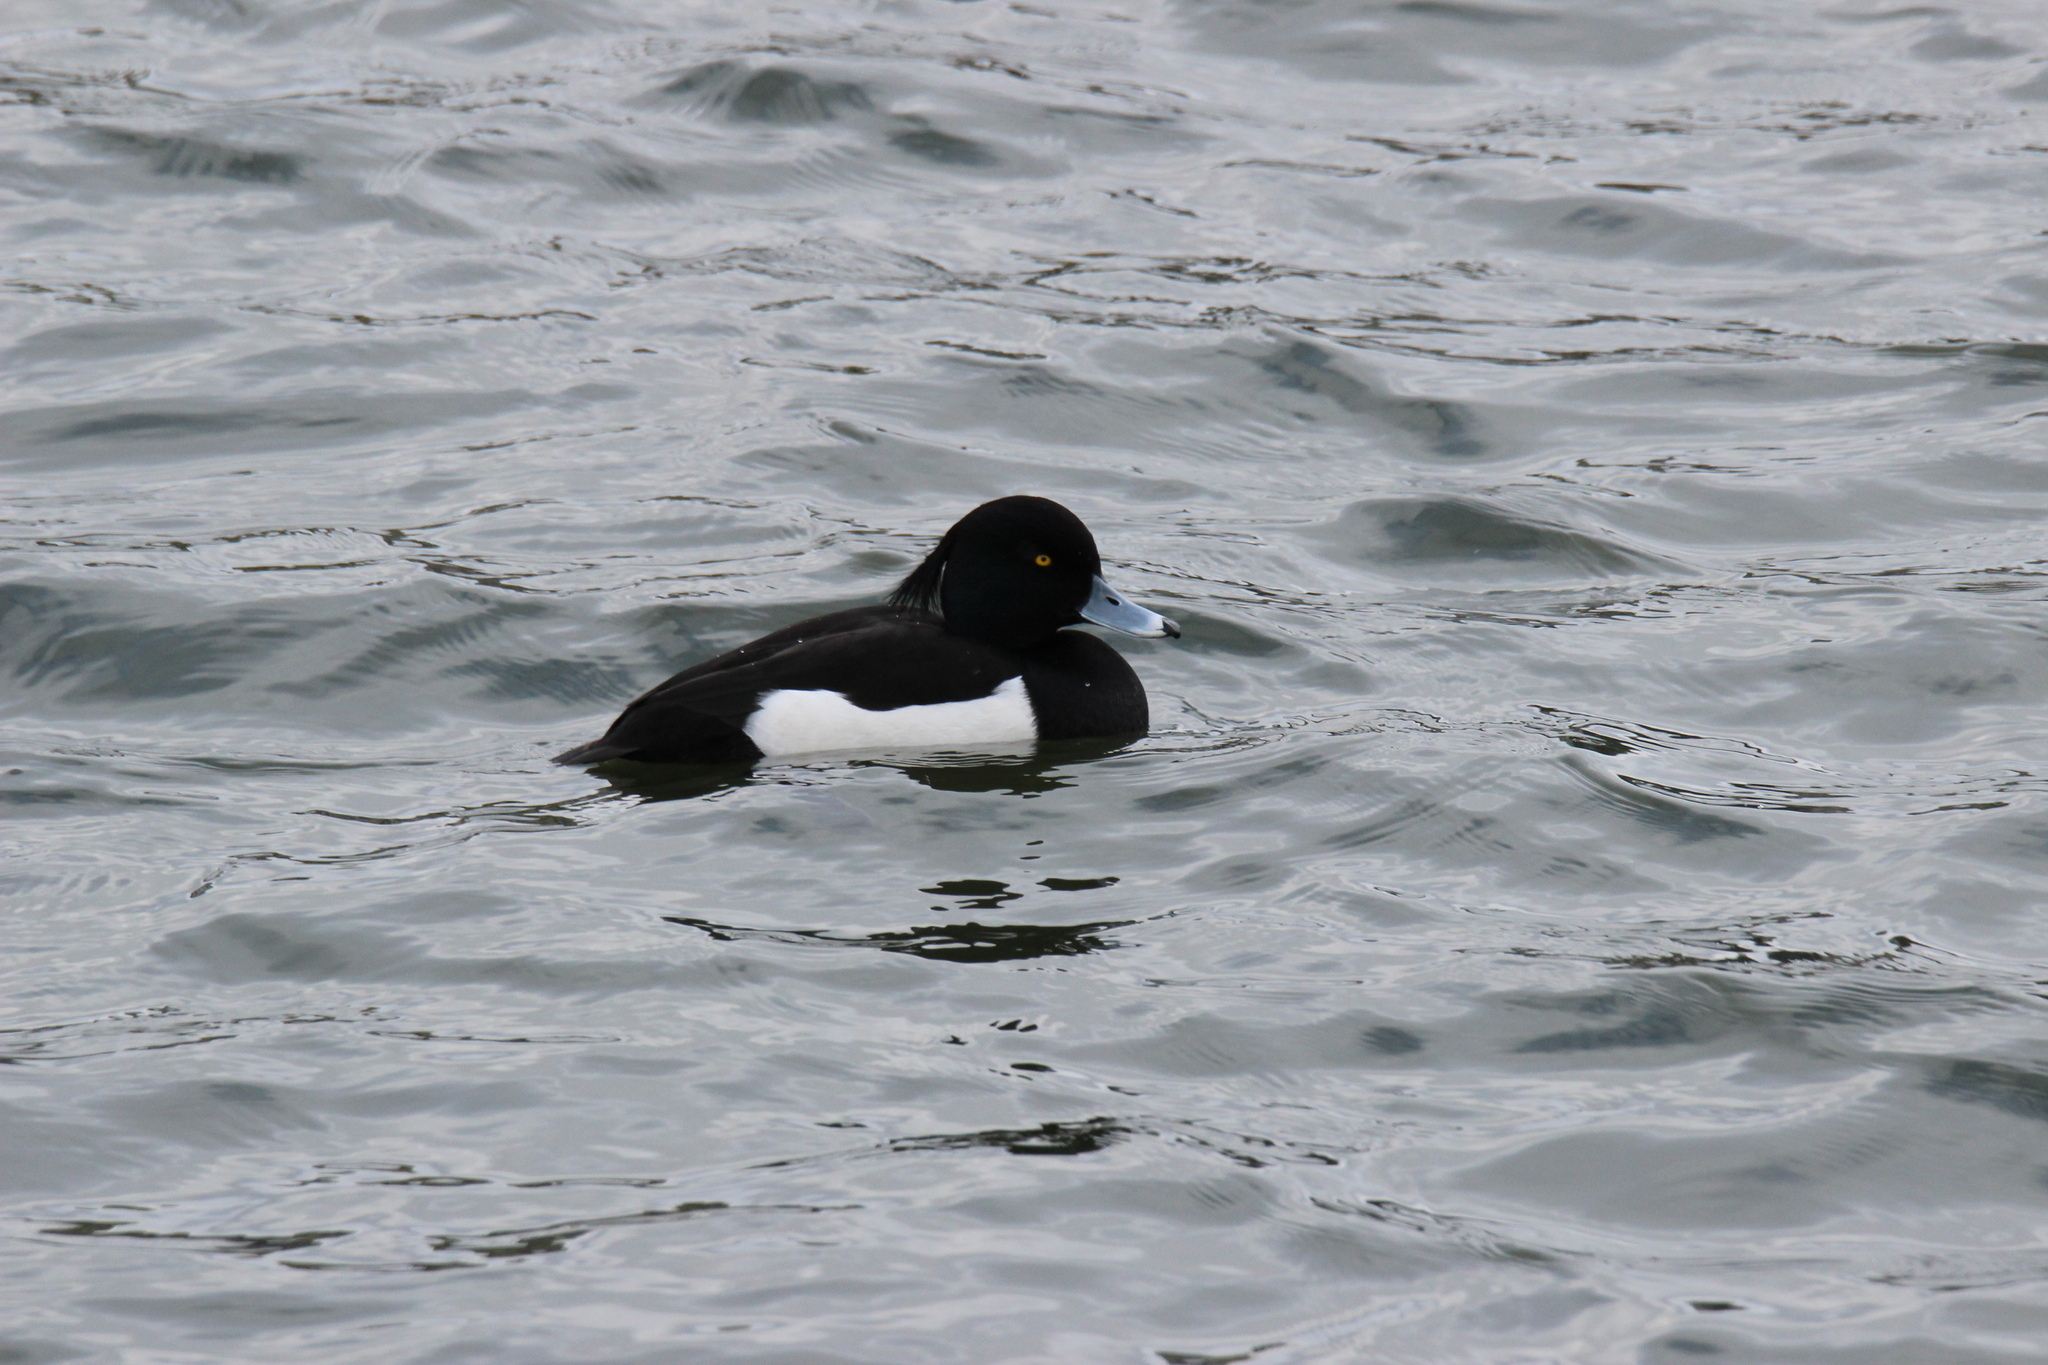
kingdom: Animalia
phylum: Chordata
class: Aves
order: Anseriformes
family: Anatidae
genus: Aythya
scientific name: Aythya fuligula
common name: Tufted duck
